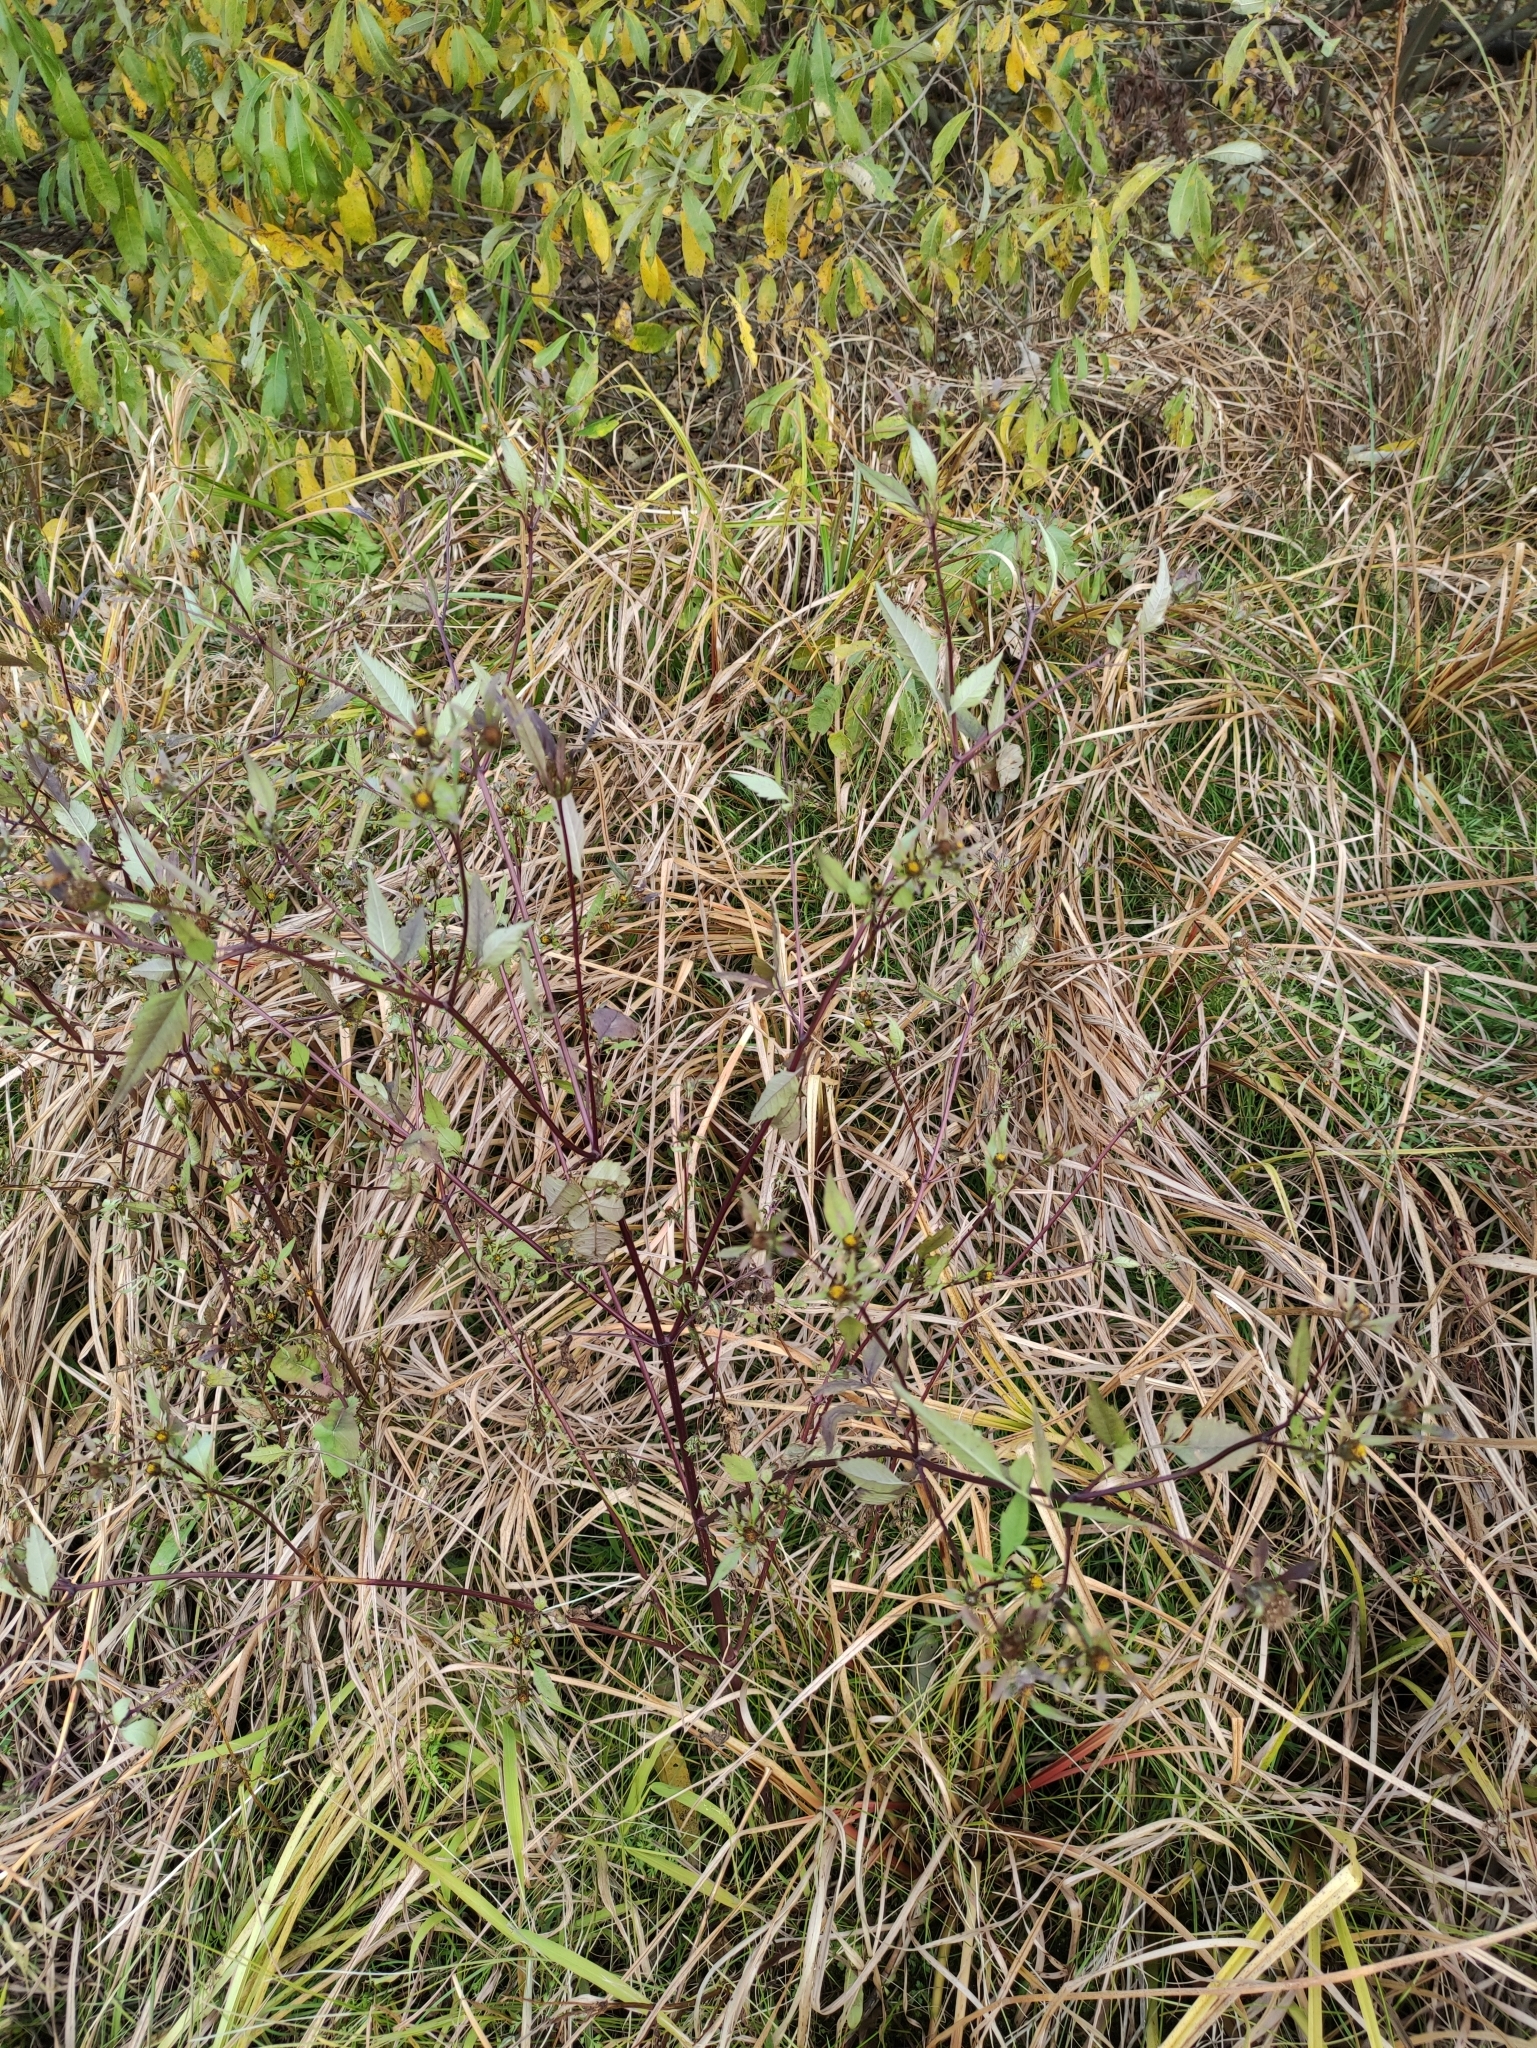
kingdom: Plantae
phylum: Tracheophyta
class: Magnoliopsida
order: Asterales
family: Asteraceae
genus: Bidens
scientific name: Bidens frondosa
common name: Beggarticks
